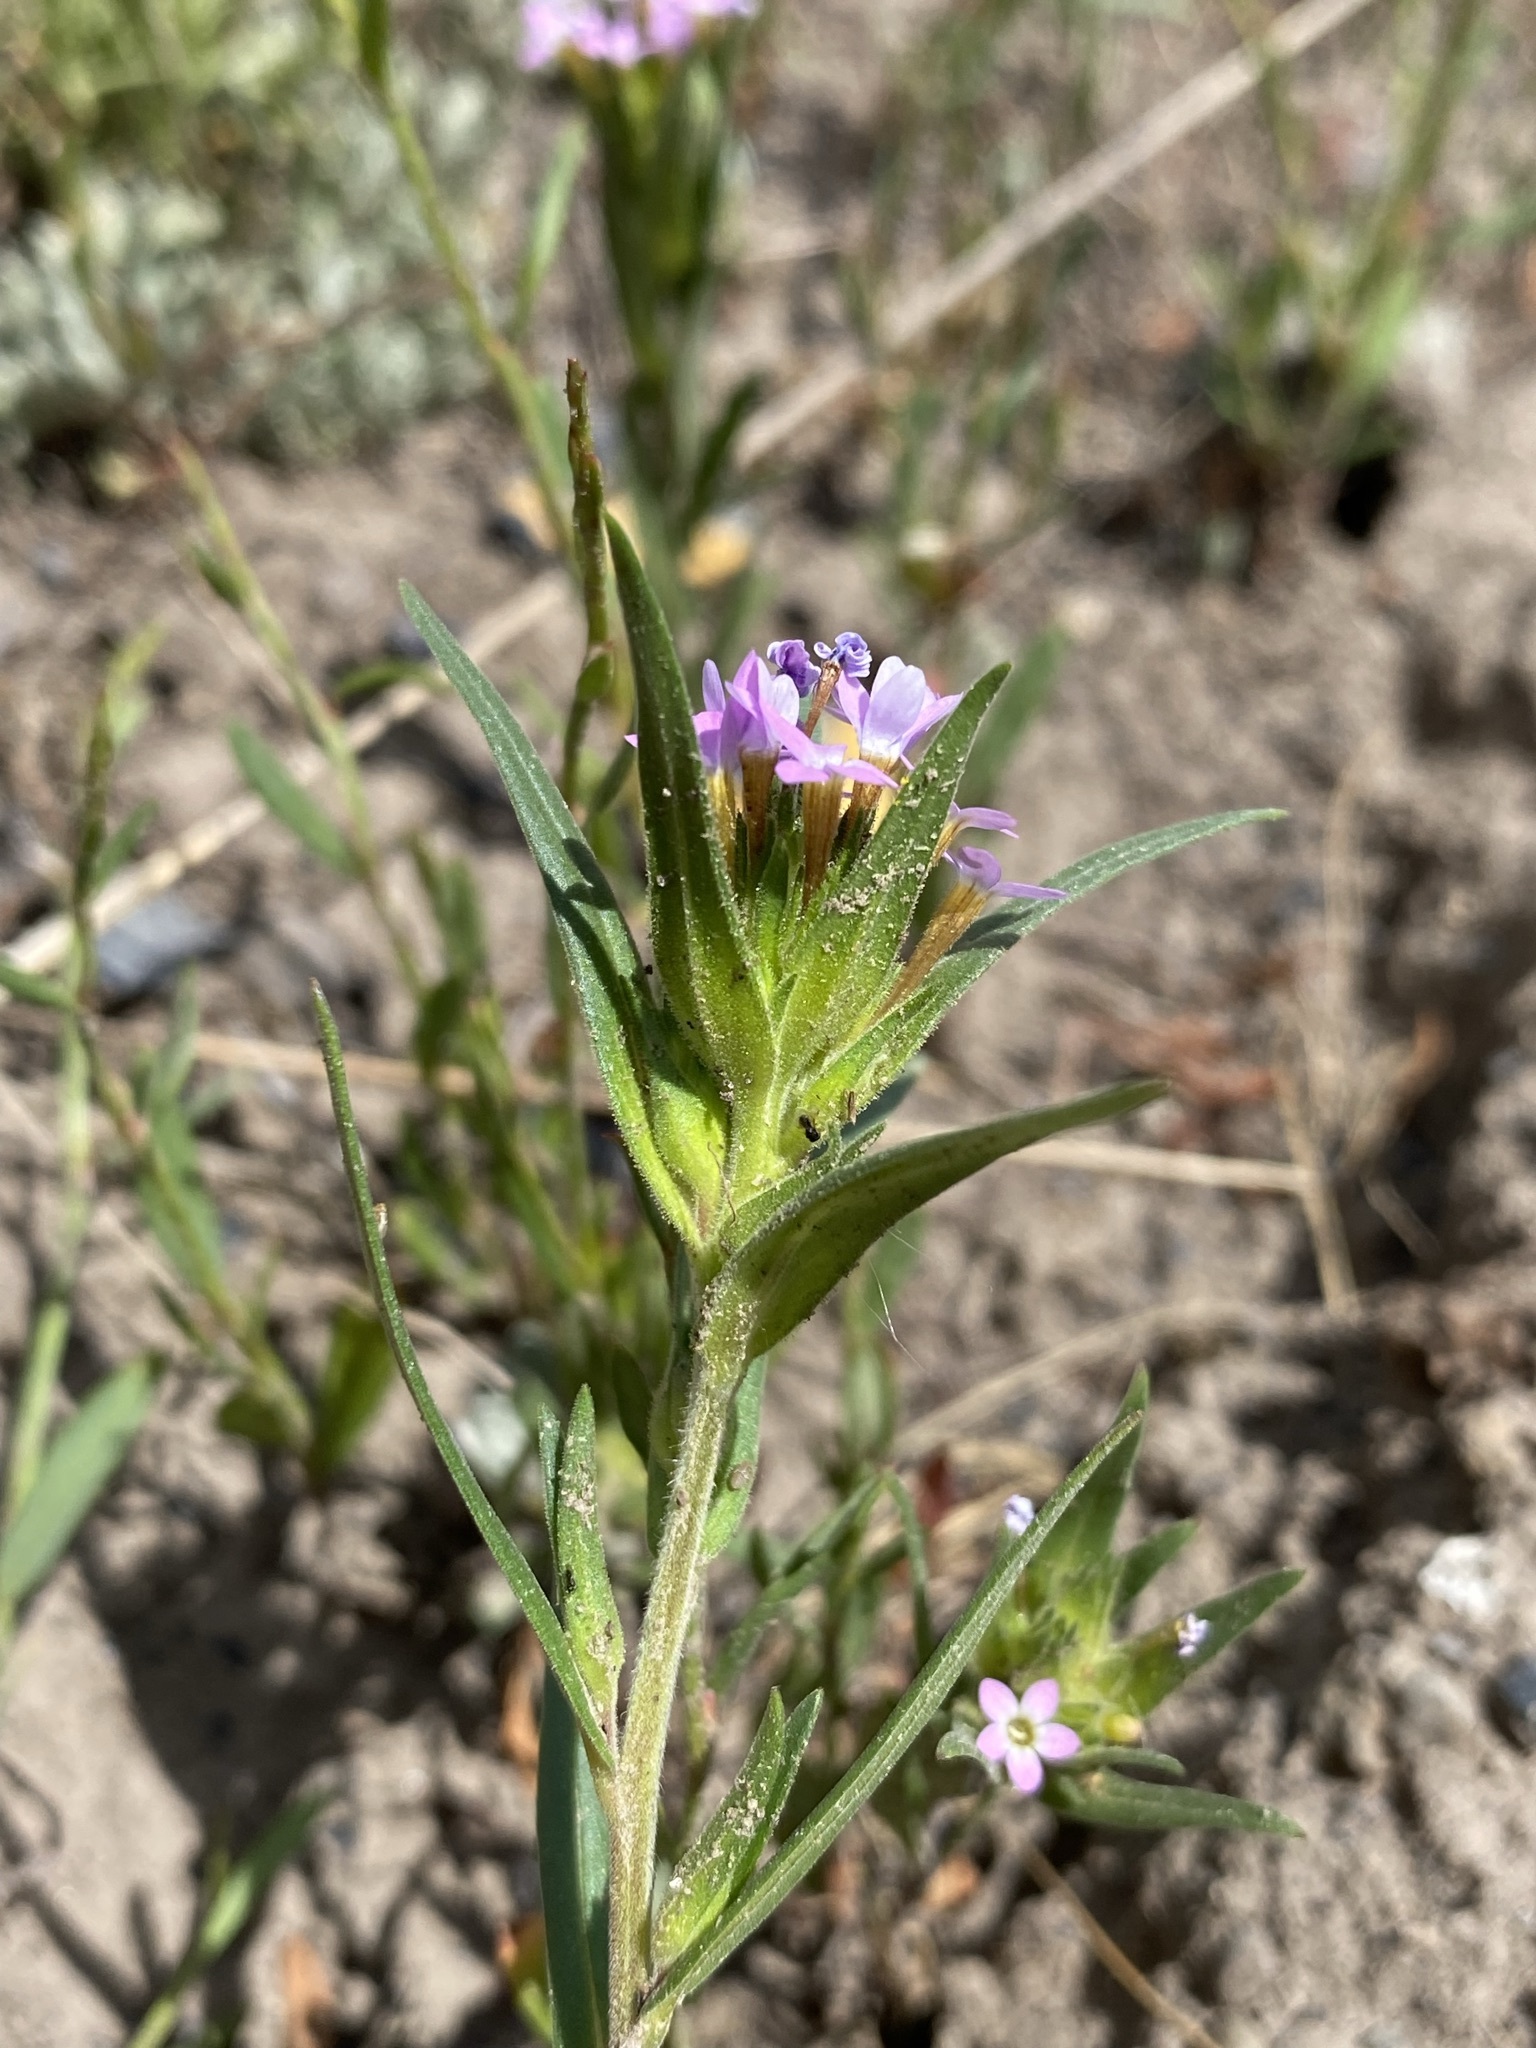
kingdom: Plantae
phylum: Tracheophyta
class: Magnoliopsida
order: Ericales
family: Polemoniaceae
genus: Collomia
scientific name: Collomia linearis
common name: Tiny trumpet
